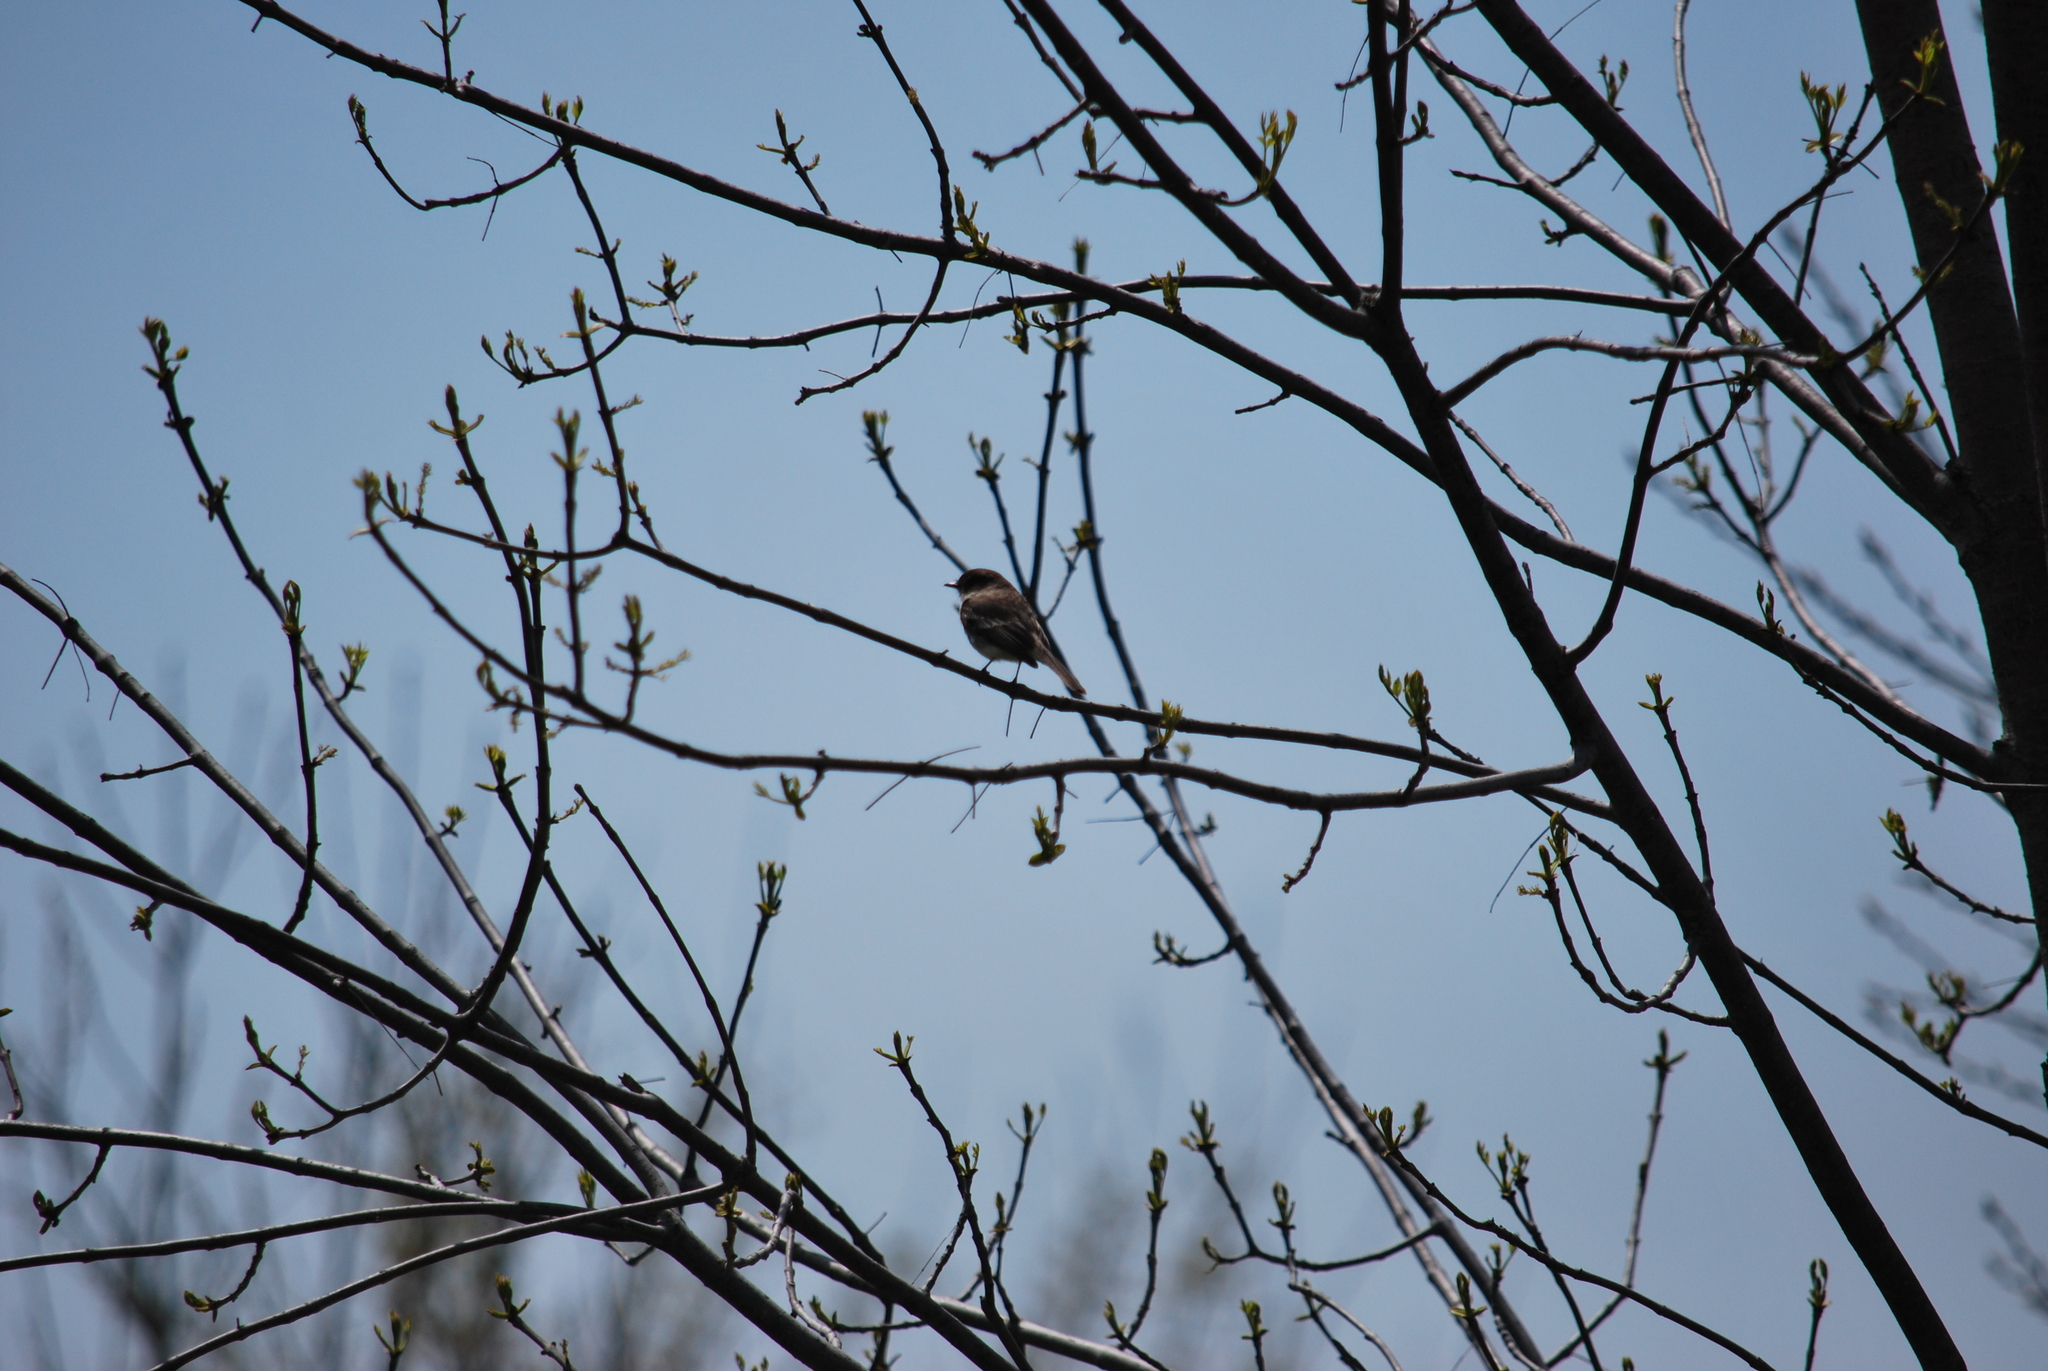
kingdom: Animalia
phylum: Chordata
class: Aves
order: Passeriformes
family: Tyrannidae
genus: Sayornis
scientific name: Sayornis phoebe
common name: Eastern phoebe
